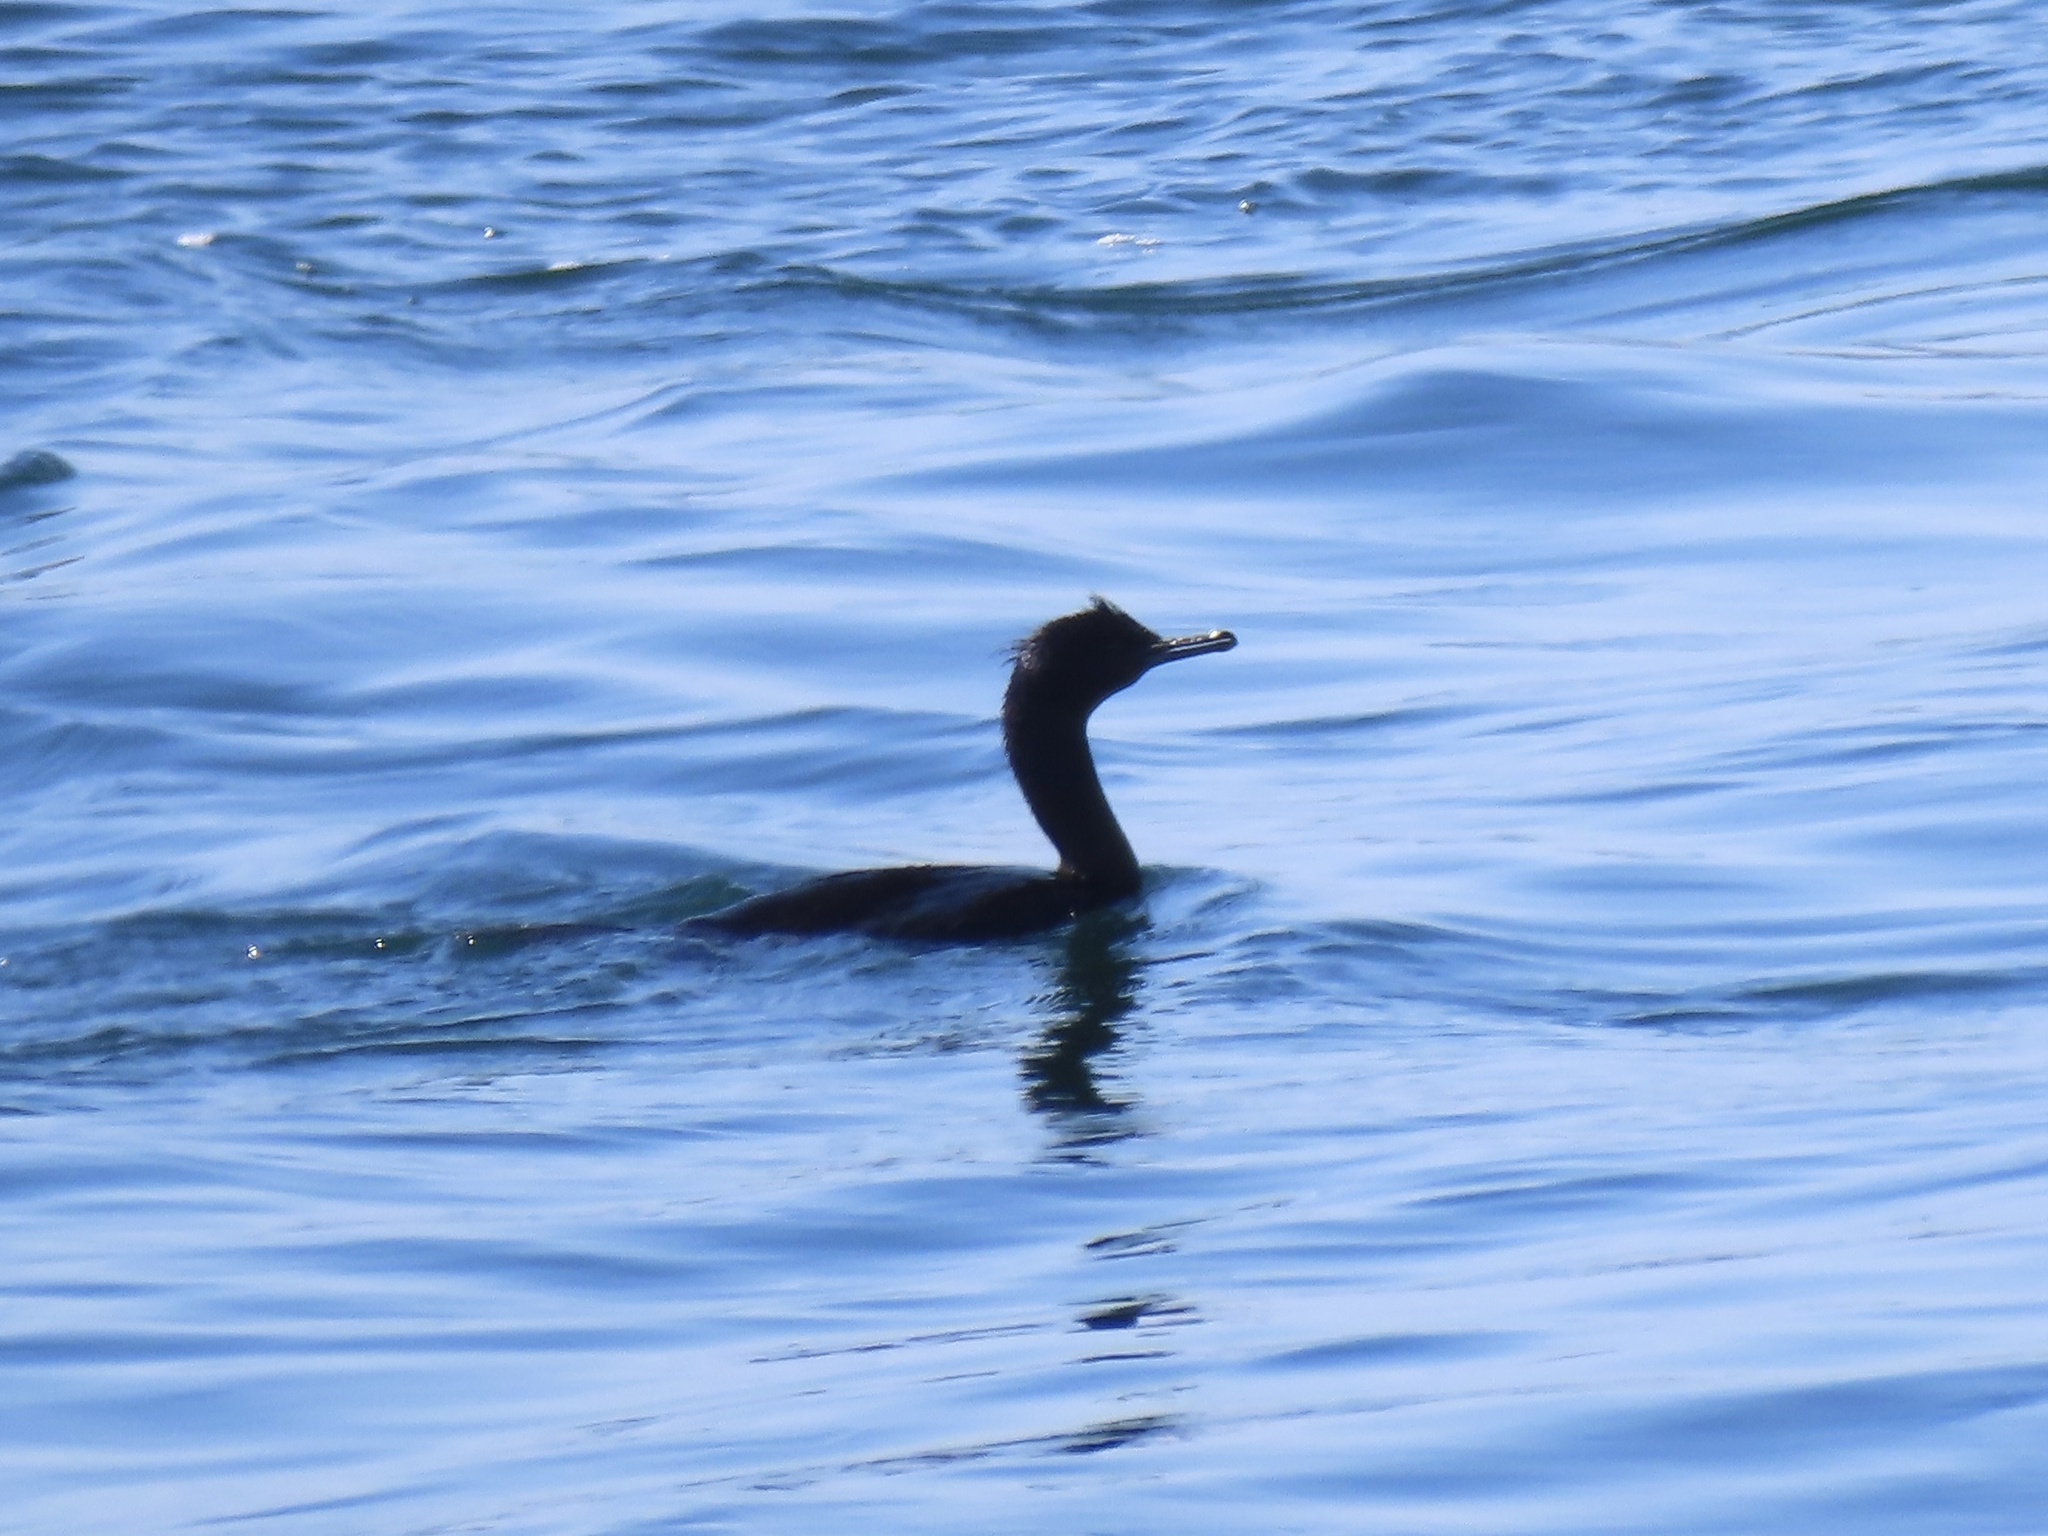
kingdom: Animalia
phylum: Chordata
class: Aves
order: Suliformes
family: Phalacrocoracidae
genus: Phalacrocorax
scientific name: Phalacrocorax pelagicus
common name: Pelagic cormorant
